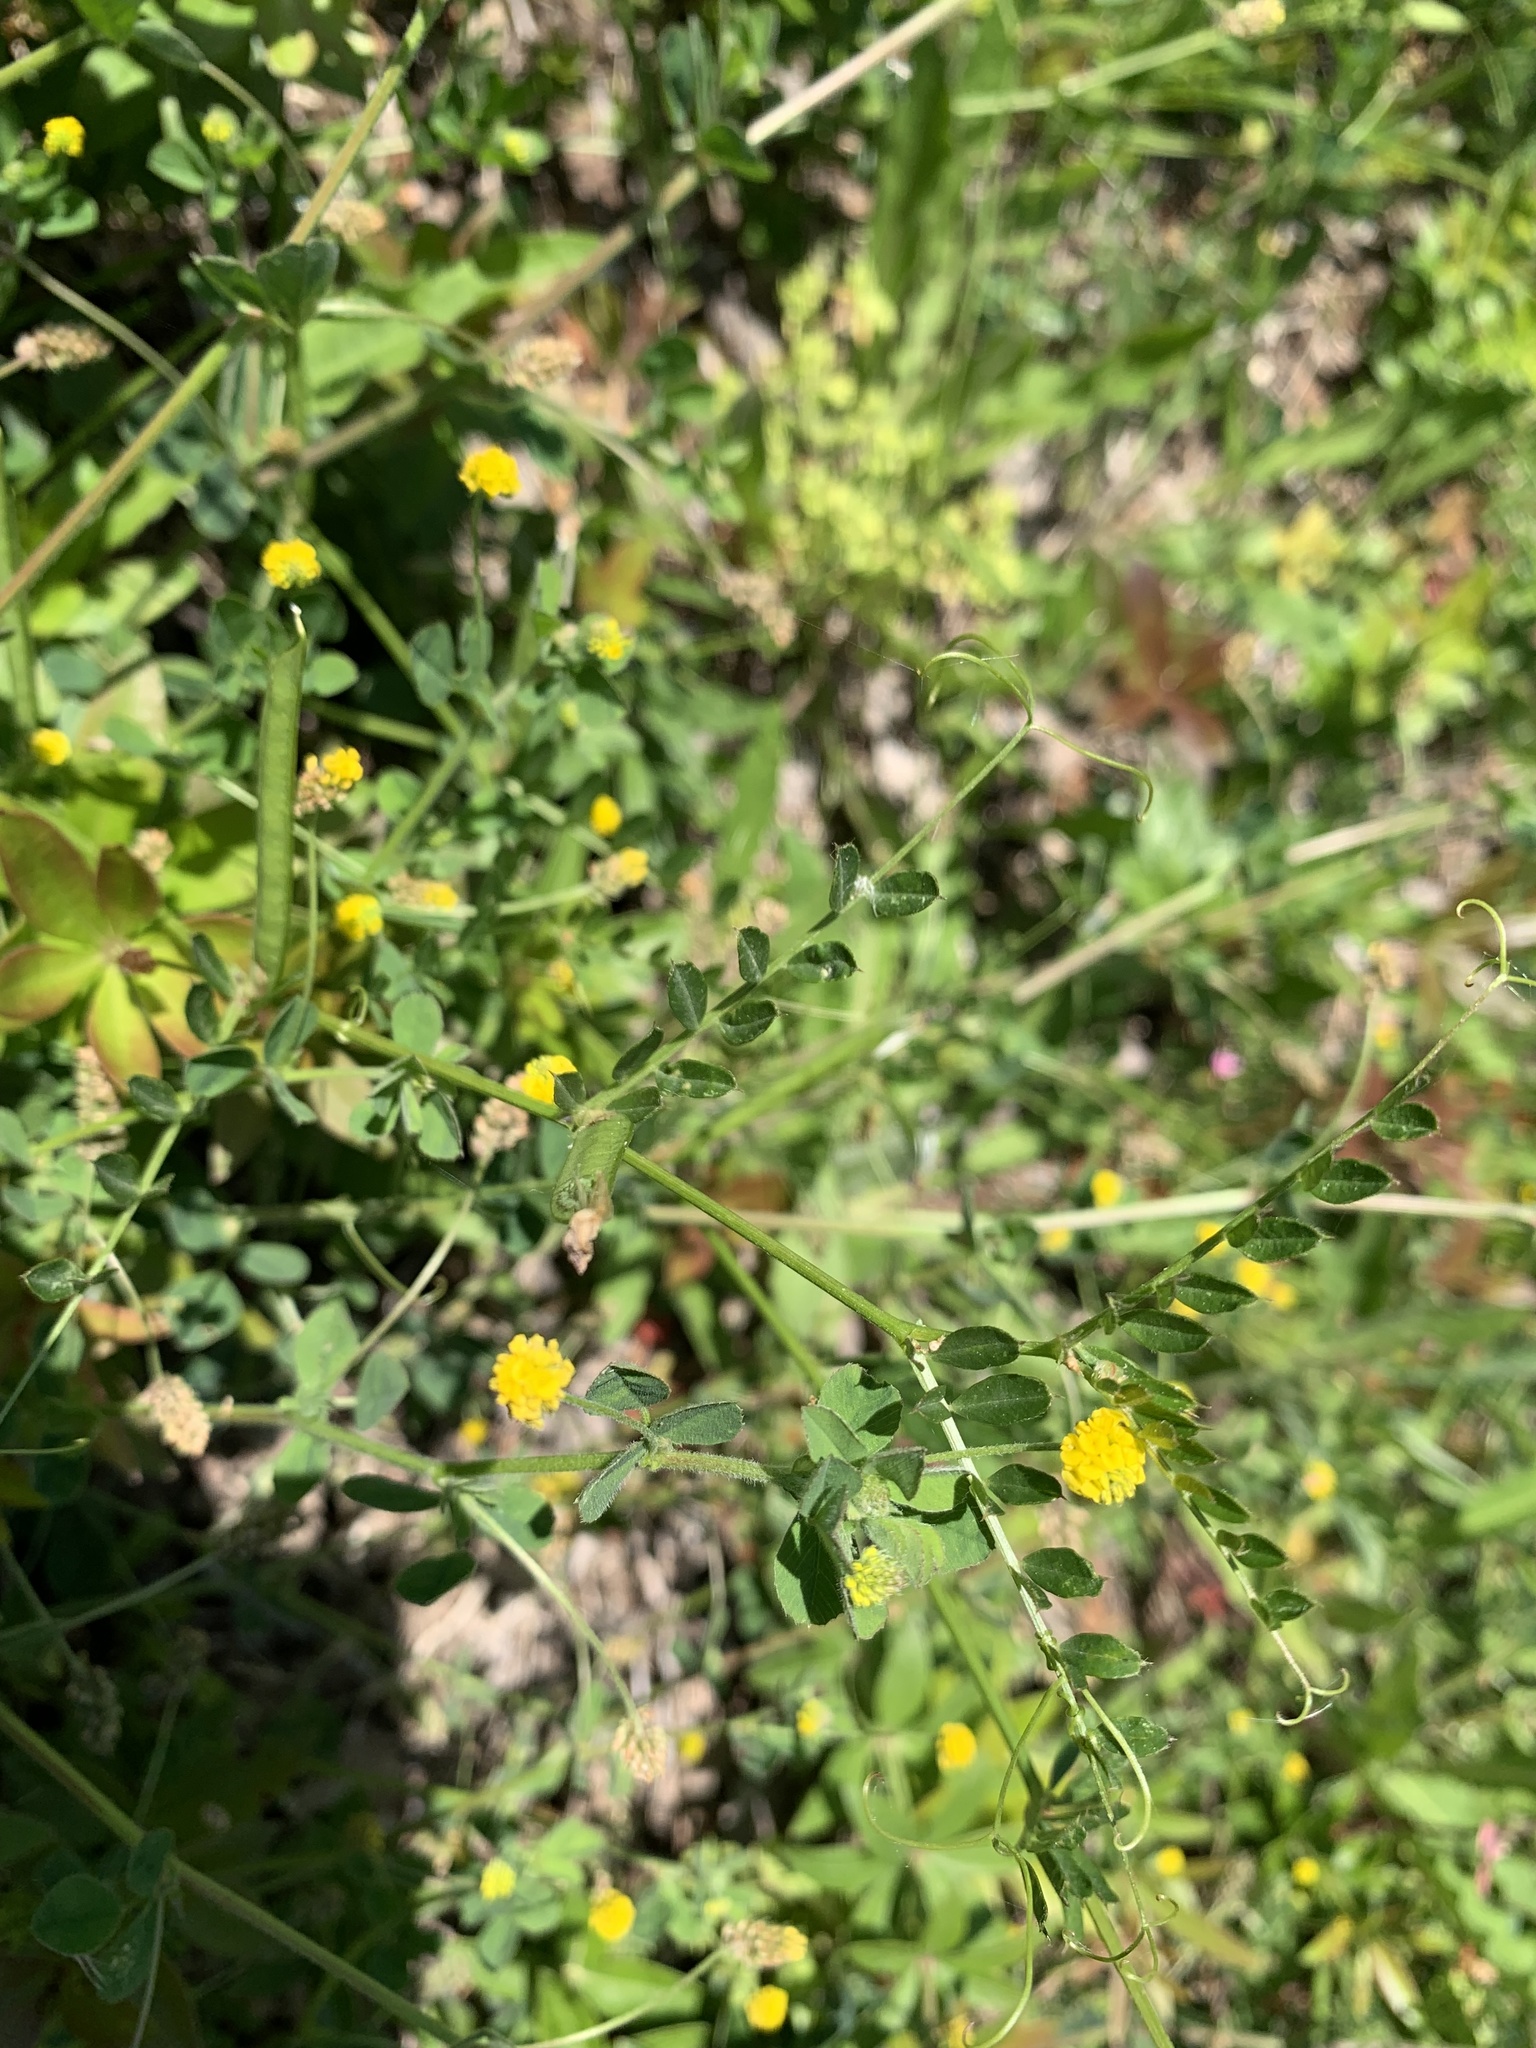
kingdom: Plantae
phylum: Tracheophyta
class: Magnoliopsida
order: Fabales
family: Fabaceae
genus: Medicago
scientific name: Medicago lupulina
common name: Black medick
